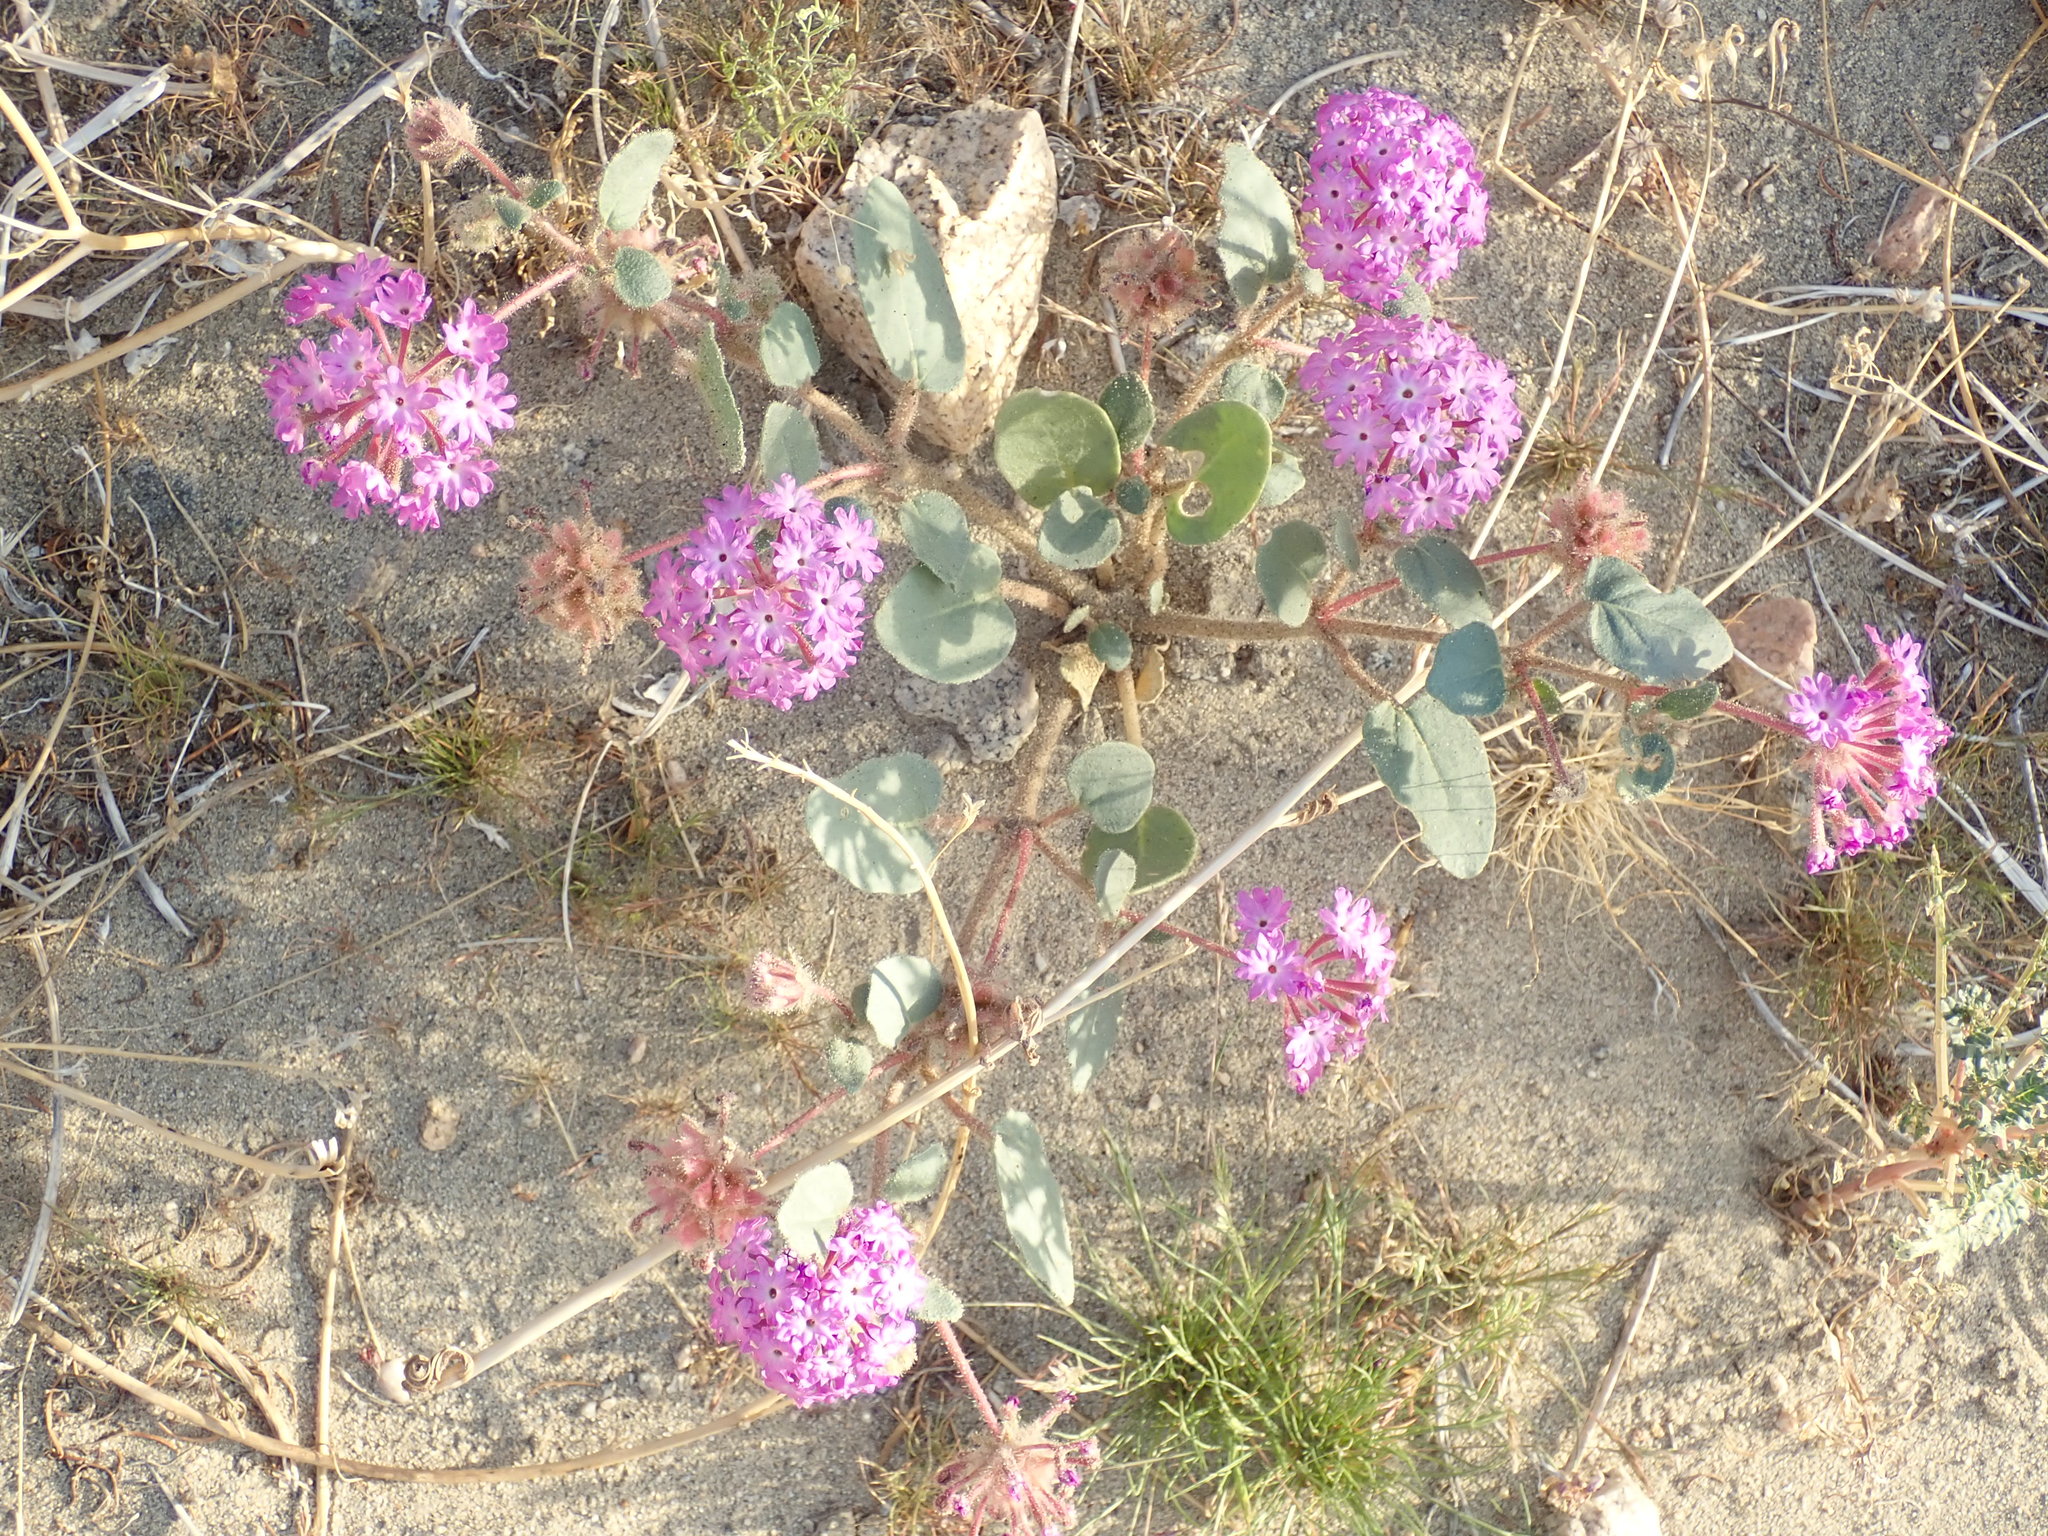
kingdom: Plantae
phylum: Tracheophyta
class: Magnoliopsida
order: Caryophyllales
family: Nyctaginaceae
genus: Abronia
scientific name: Abronia villosa
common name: Desert sand-verbena
